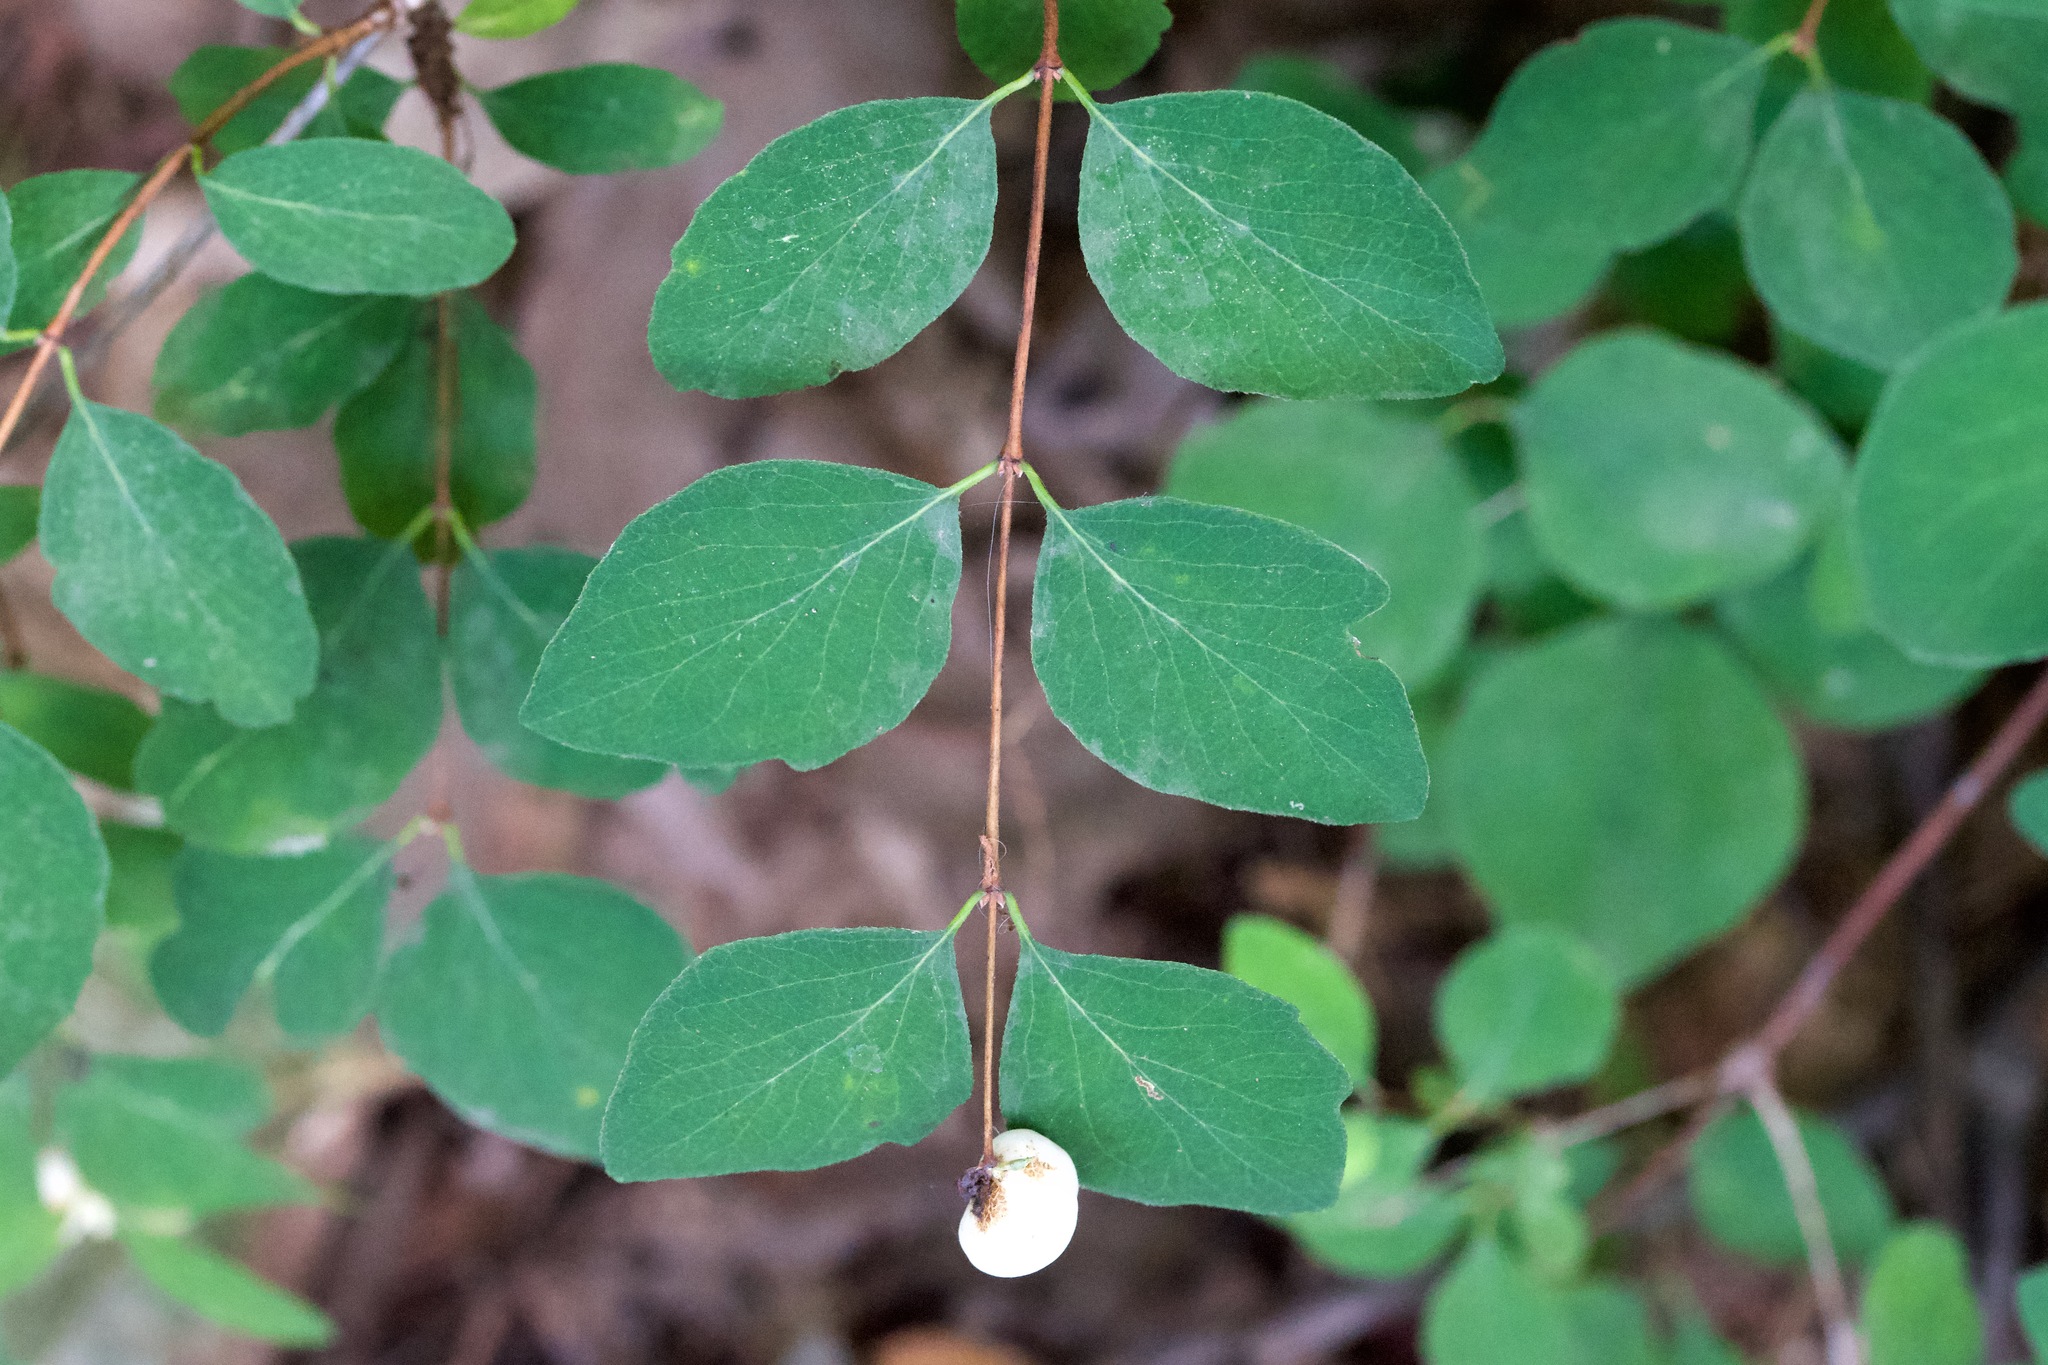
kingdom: Plantae
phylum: Tracheophyta
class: Magnoliopsida
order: Dipsacales
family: Caprifoliaceae
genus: Symphoricarpos
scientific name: Symphoricarpos albus
